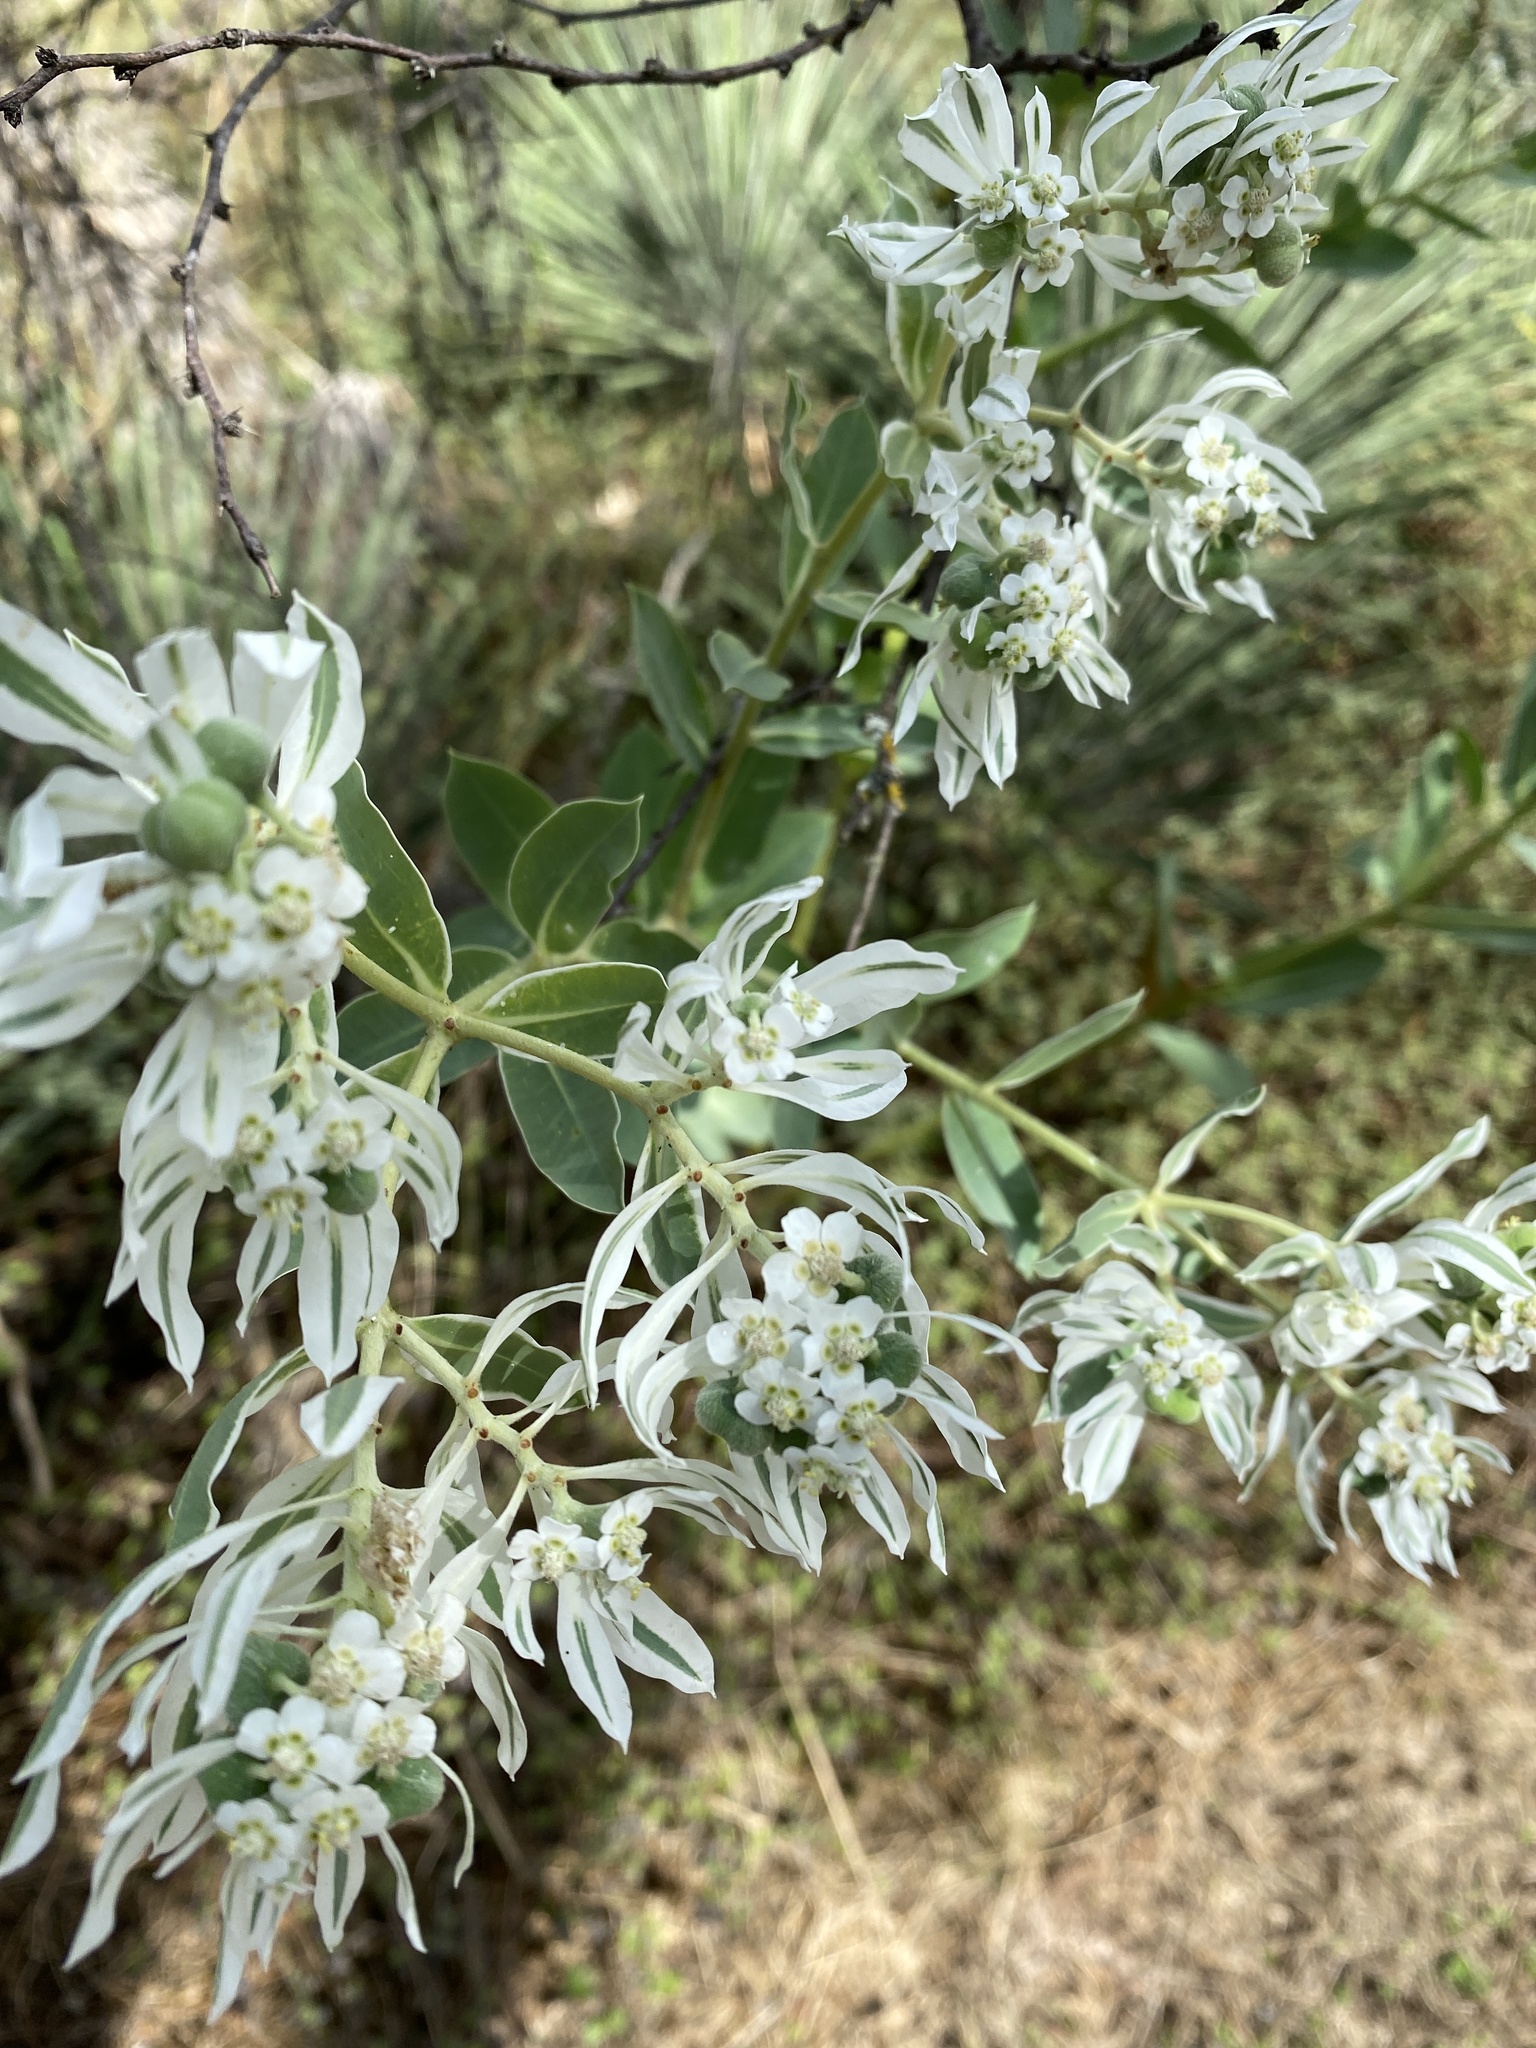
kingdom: Plantae
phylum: Tracheophyta
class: Magnoliopsida
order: Malpighiales
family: Euphorbiaceae
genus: Euphorbia
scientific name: Euphorbia marginata
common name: Ghostweed
